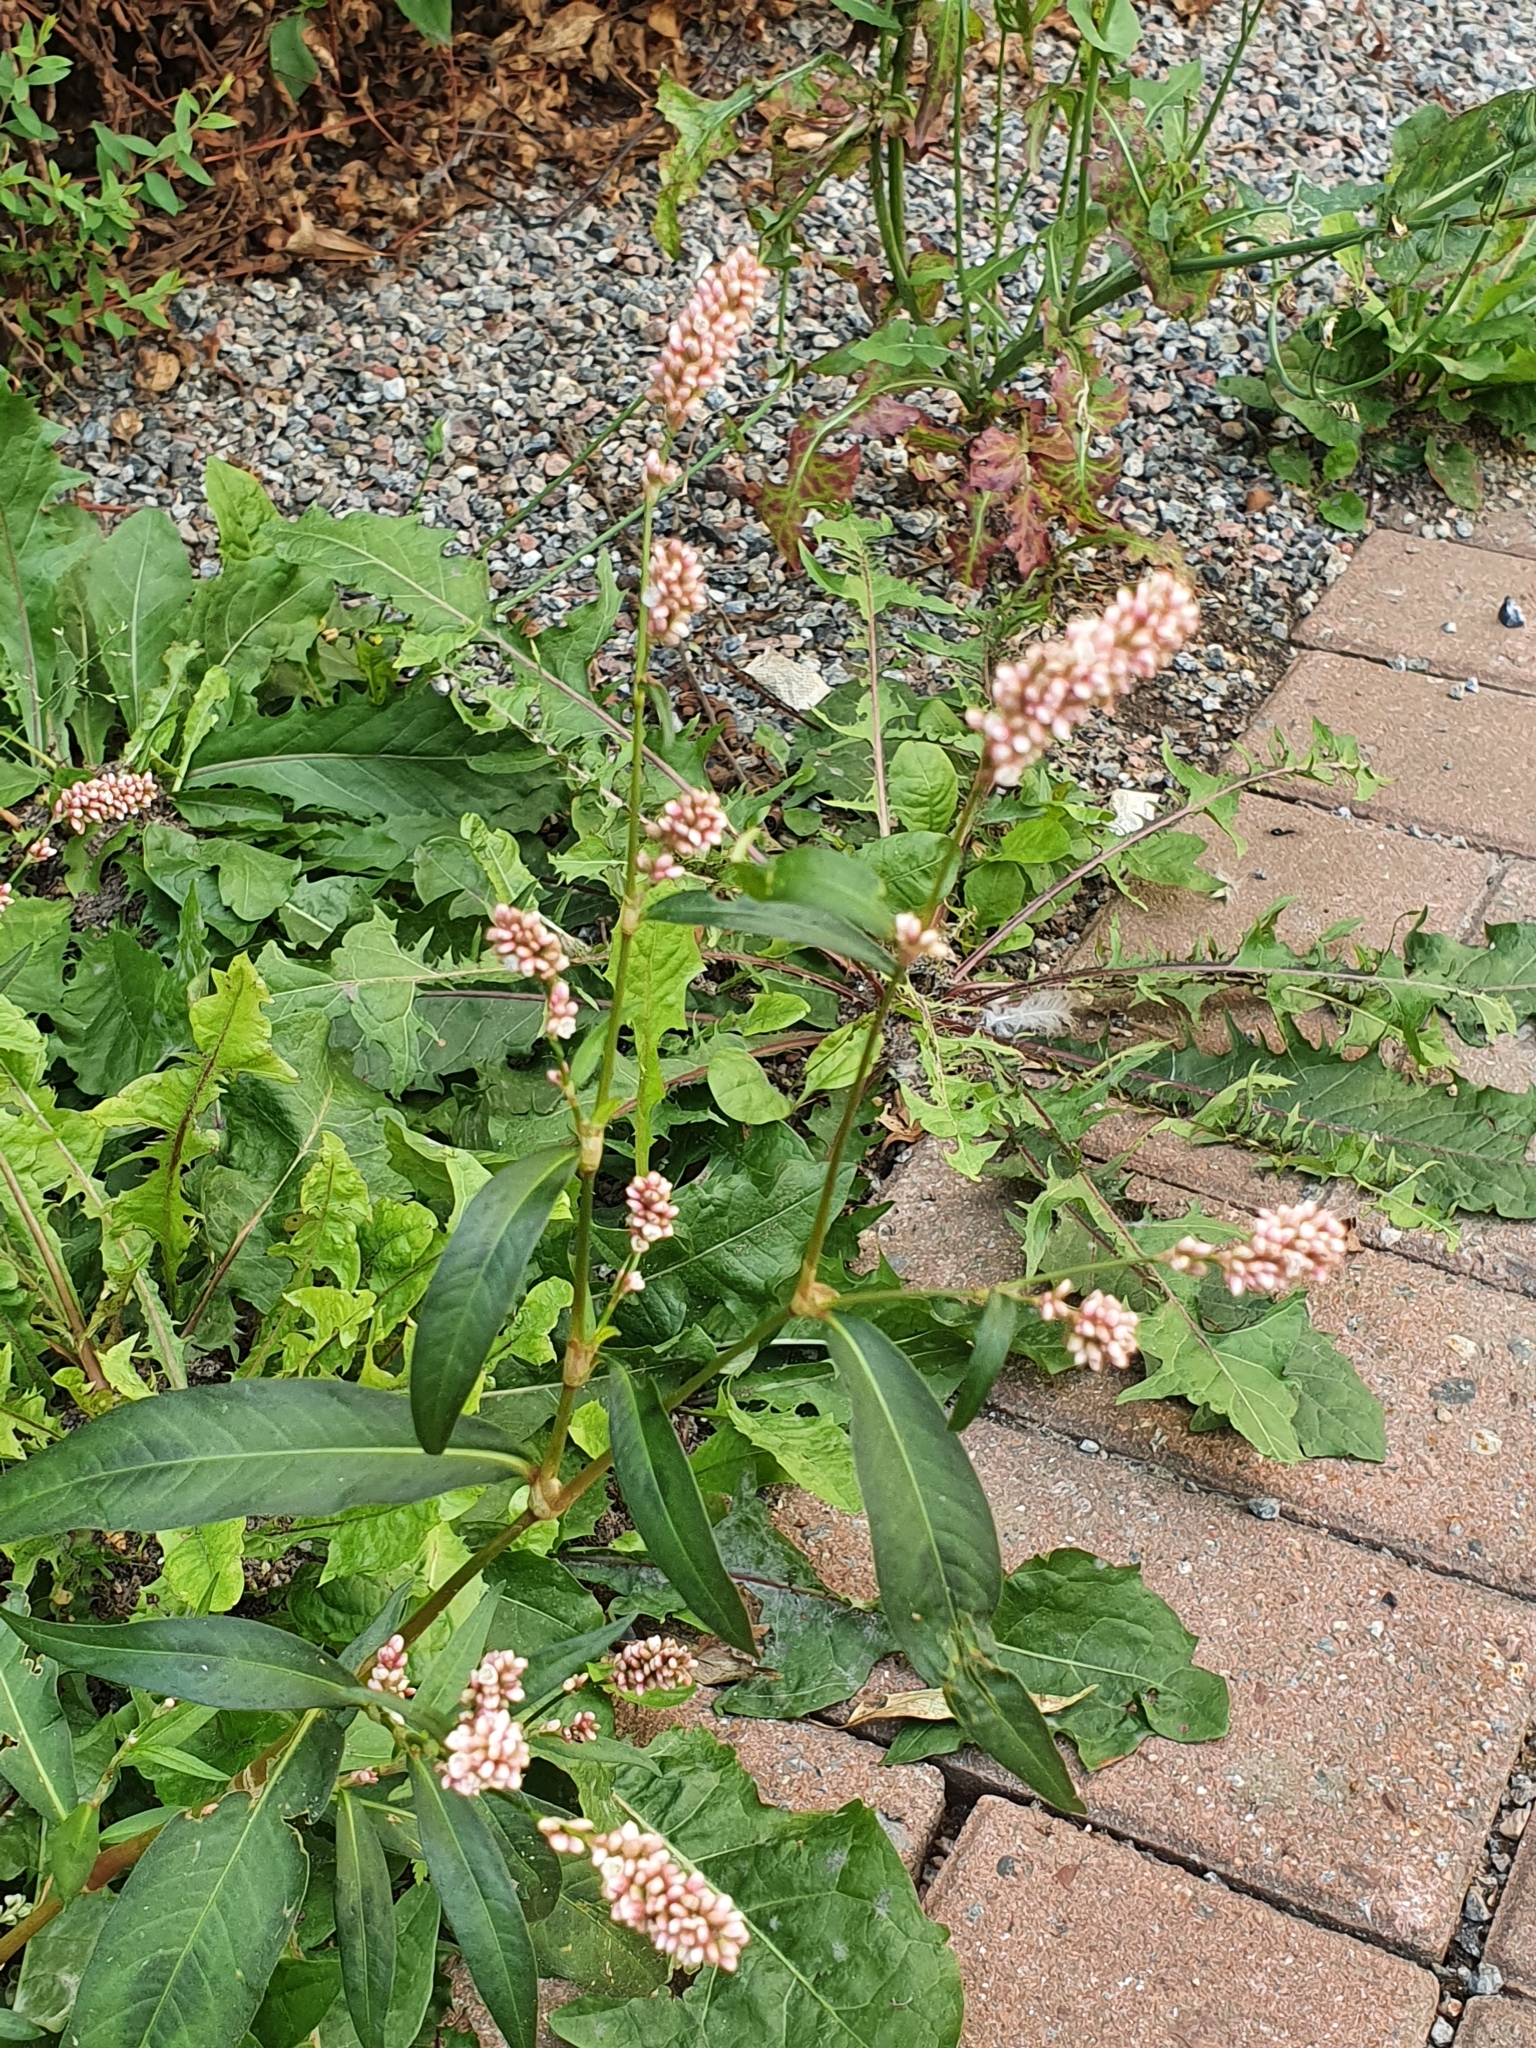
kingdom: Plantae
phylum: Tracheophyta
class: Magnoliopsida
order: Caryophyllales
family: Polygonaceae
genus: Persicaria
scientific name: Persicaria maculosa
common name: Redshank
